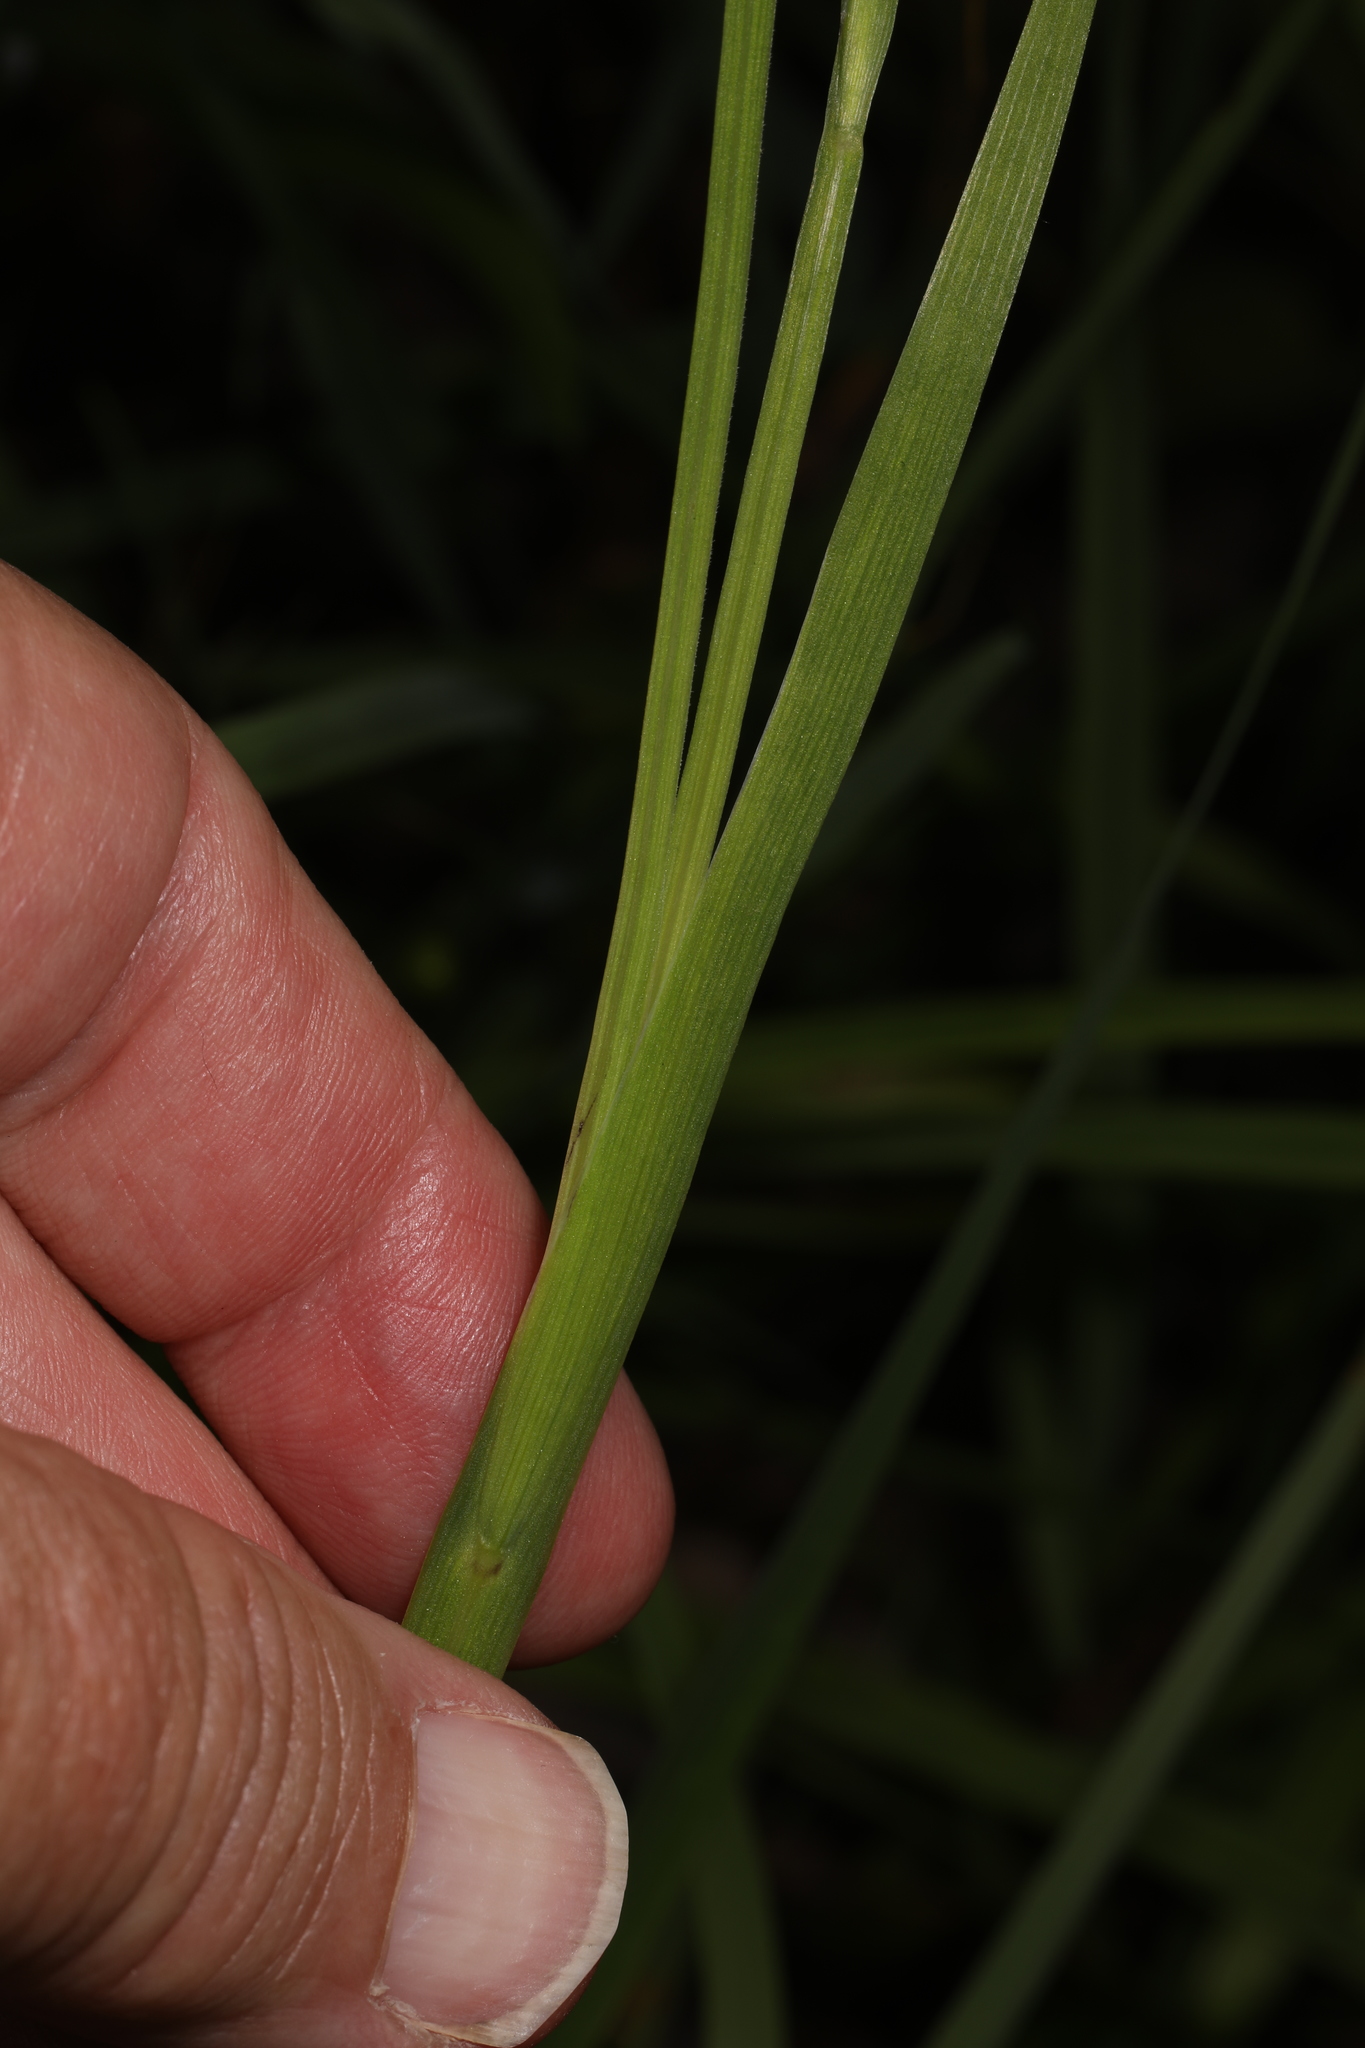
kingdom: Plantae
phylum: Tracheophyta
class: Liliopsida
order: Asparagales
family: Iridaceae
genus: Sisyrinchium
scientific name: Sisyrinchium angustifolium
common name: Narrow-leaf blue-eyed-grass
